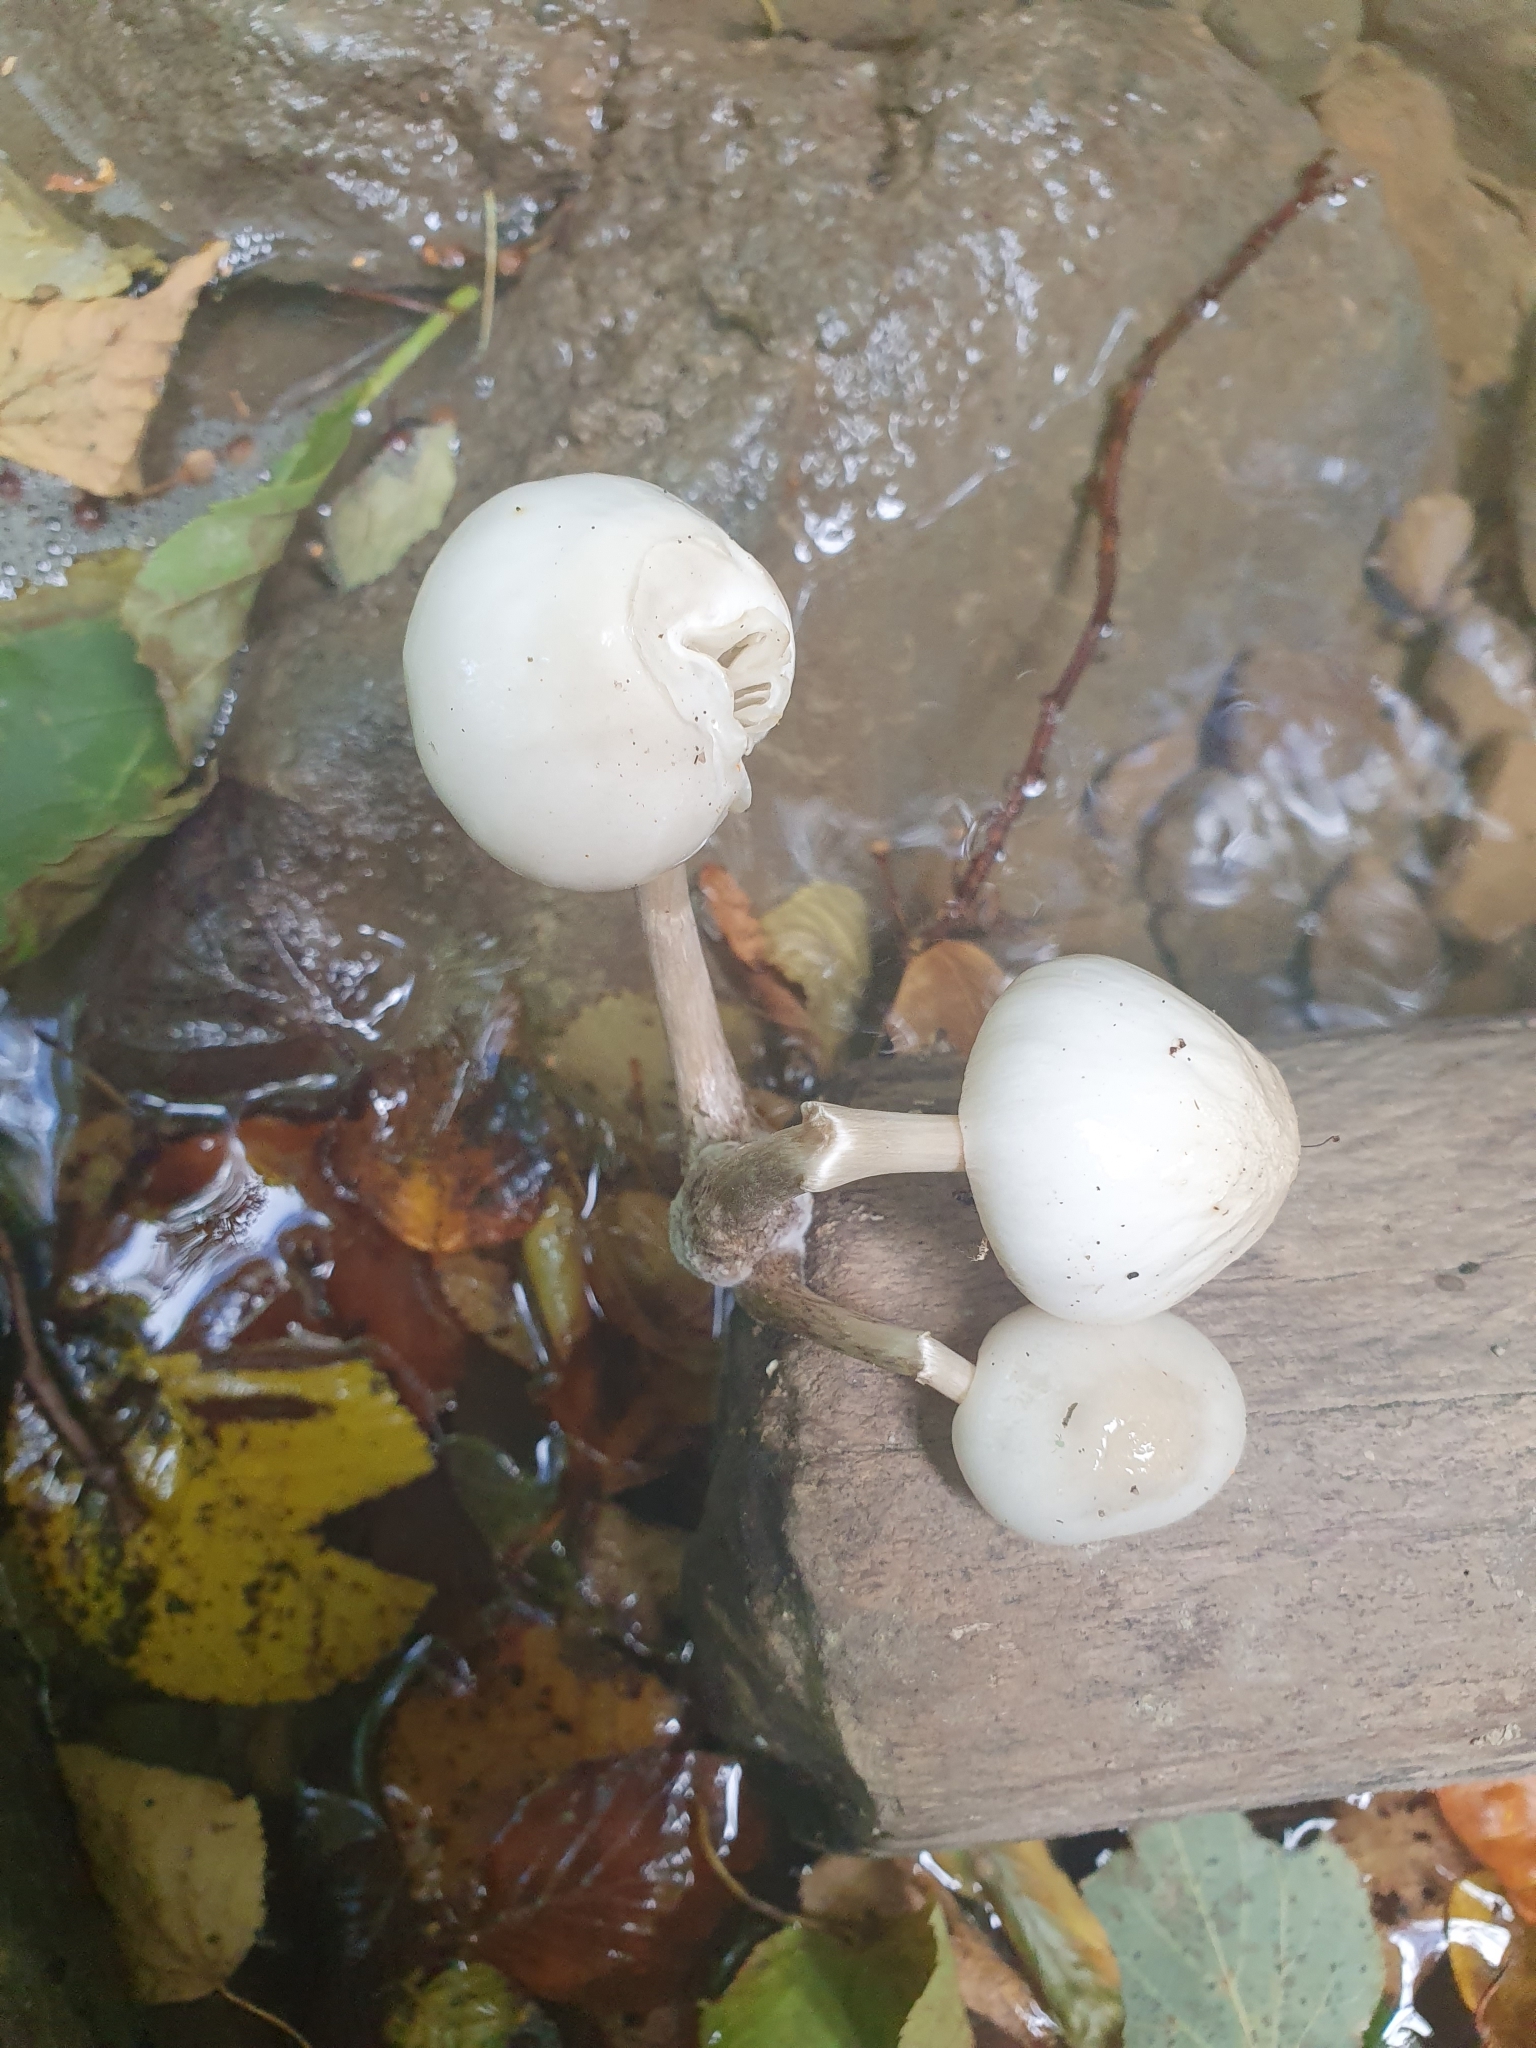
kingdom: Fungi
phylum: Basidiomycota
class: Agaricomycetes
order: Agaricales
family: Physalacriaceae
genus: Mucidula
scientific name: Mucidula mucida
